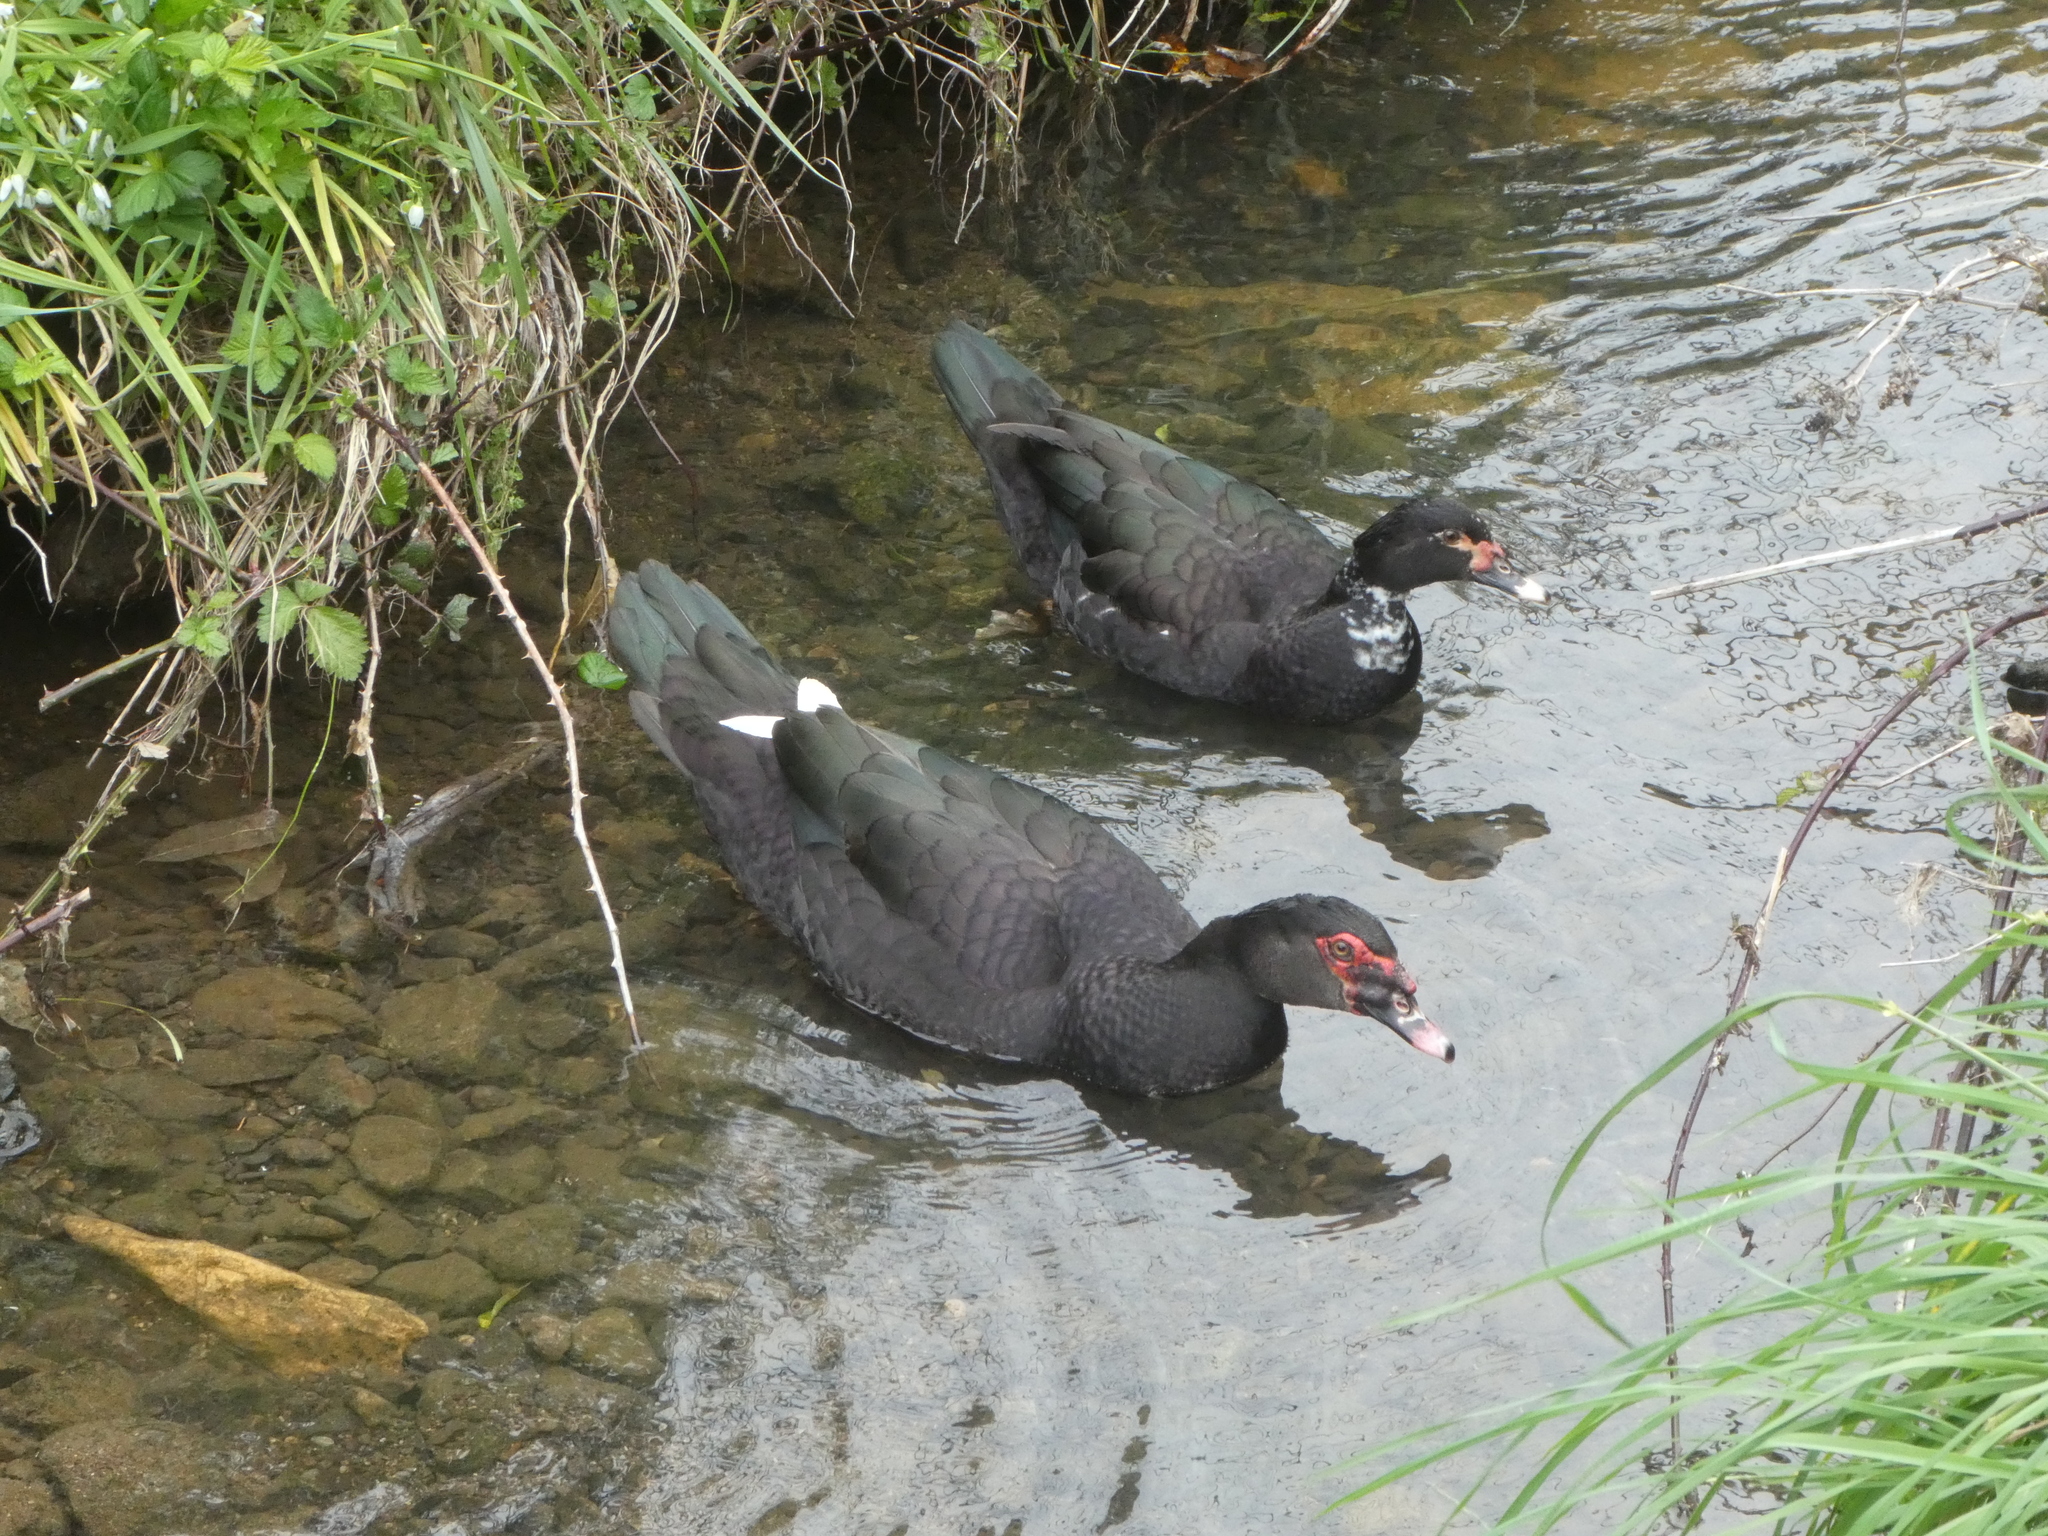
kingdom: Animalia
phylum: Chordata
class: Aves
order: Anseriformes
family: Anatidae
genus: Cairina
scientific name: Cairina moschata
